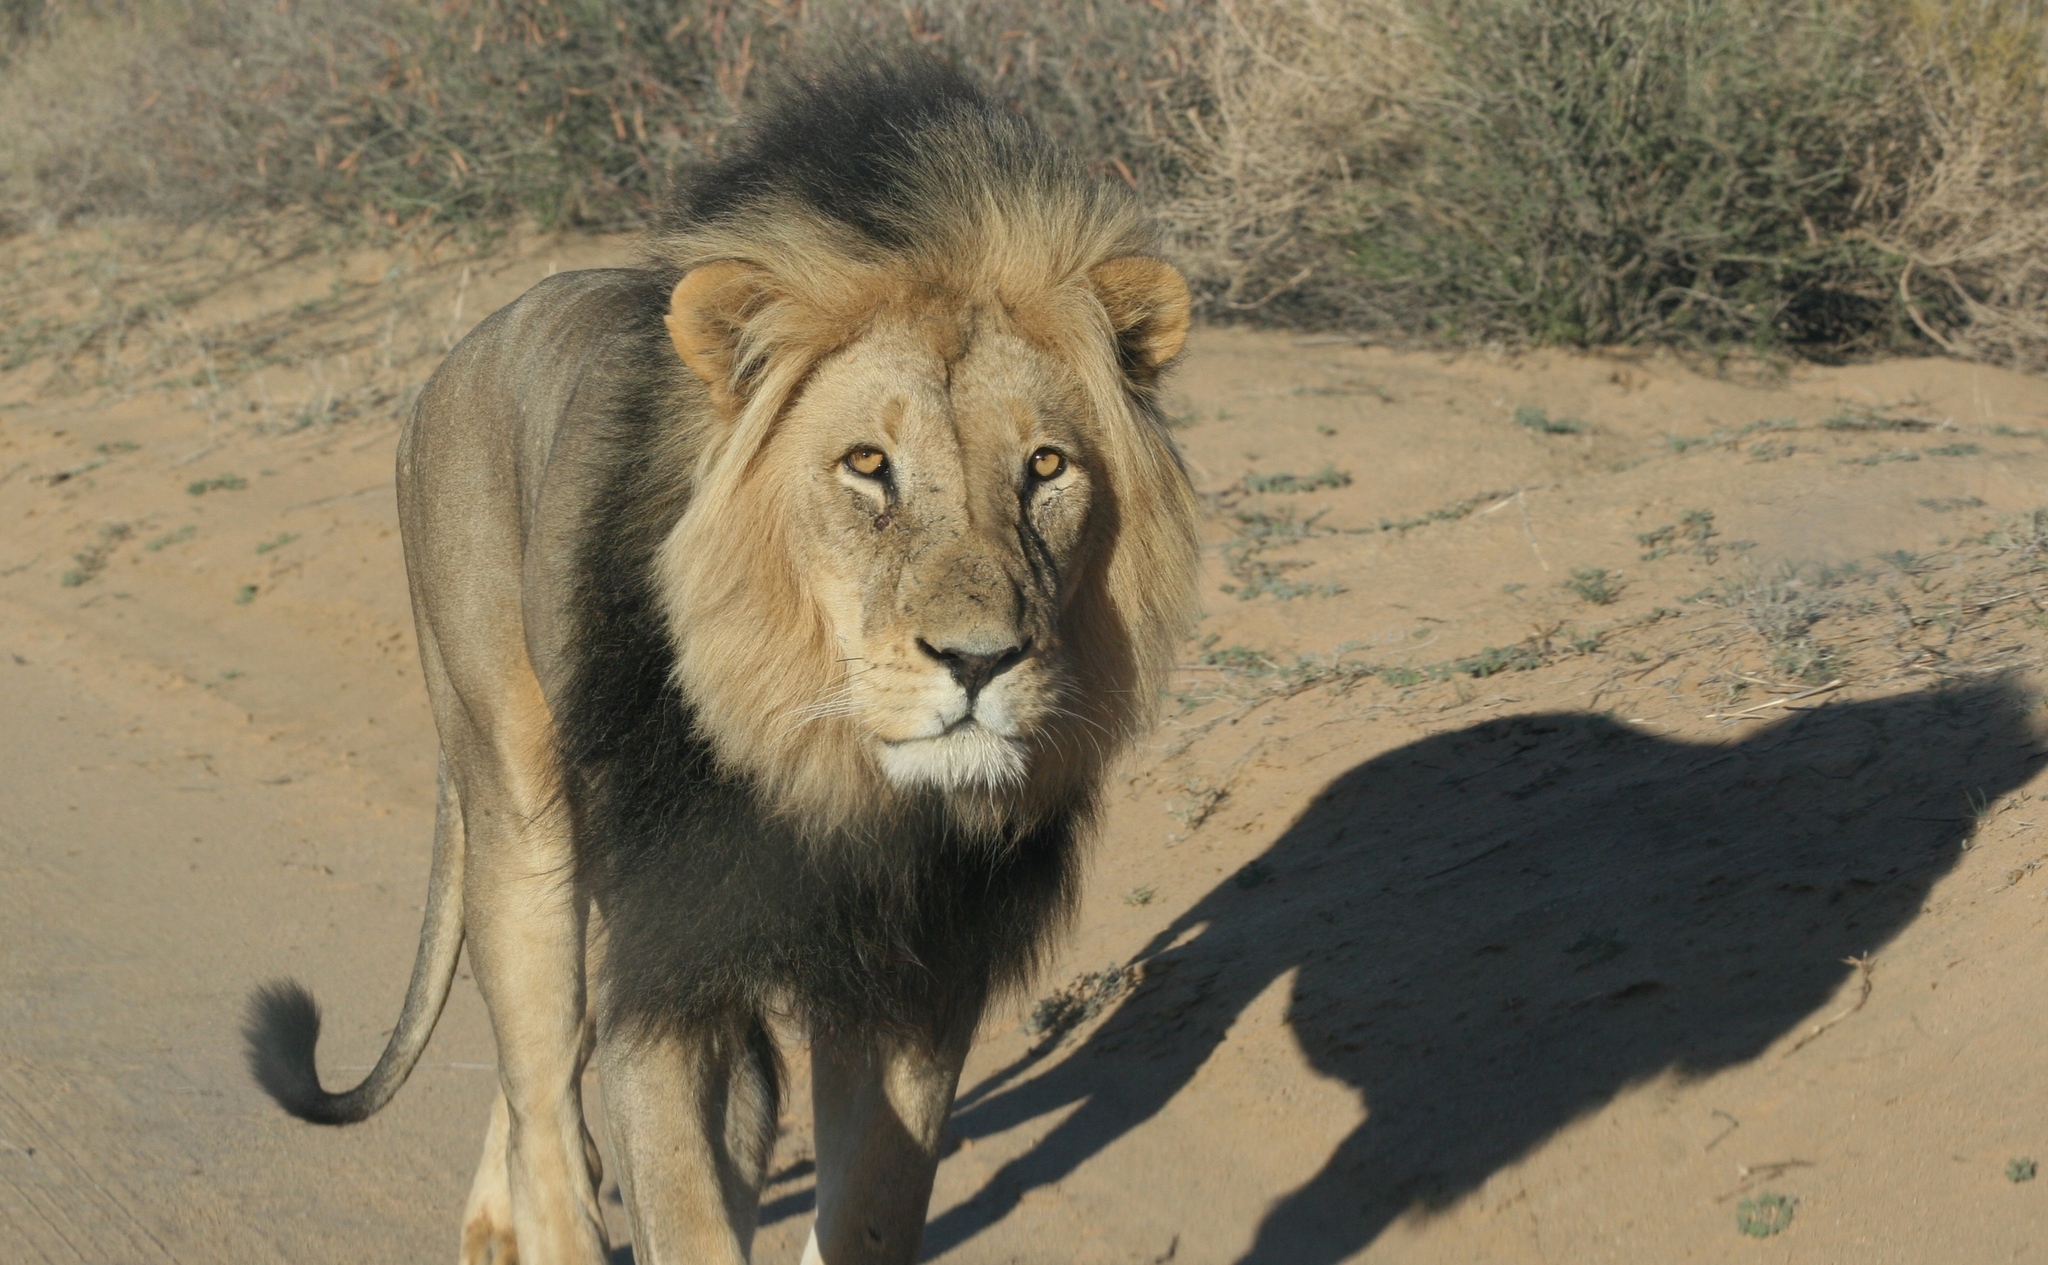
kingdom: Animalia
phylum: Chordata
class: Mammalia
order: Carnivora
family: Felidae
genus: Panthera
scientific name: Panthera leo
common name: Lion
